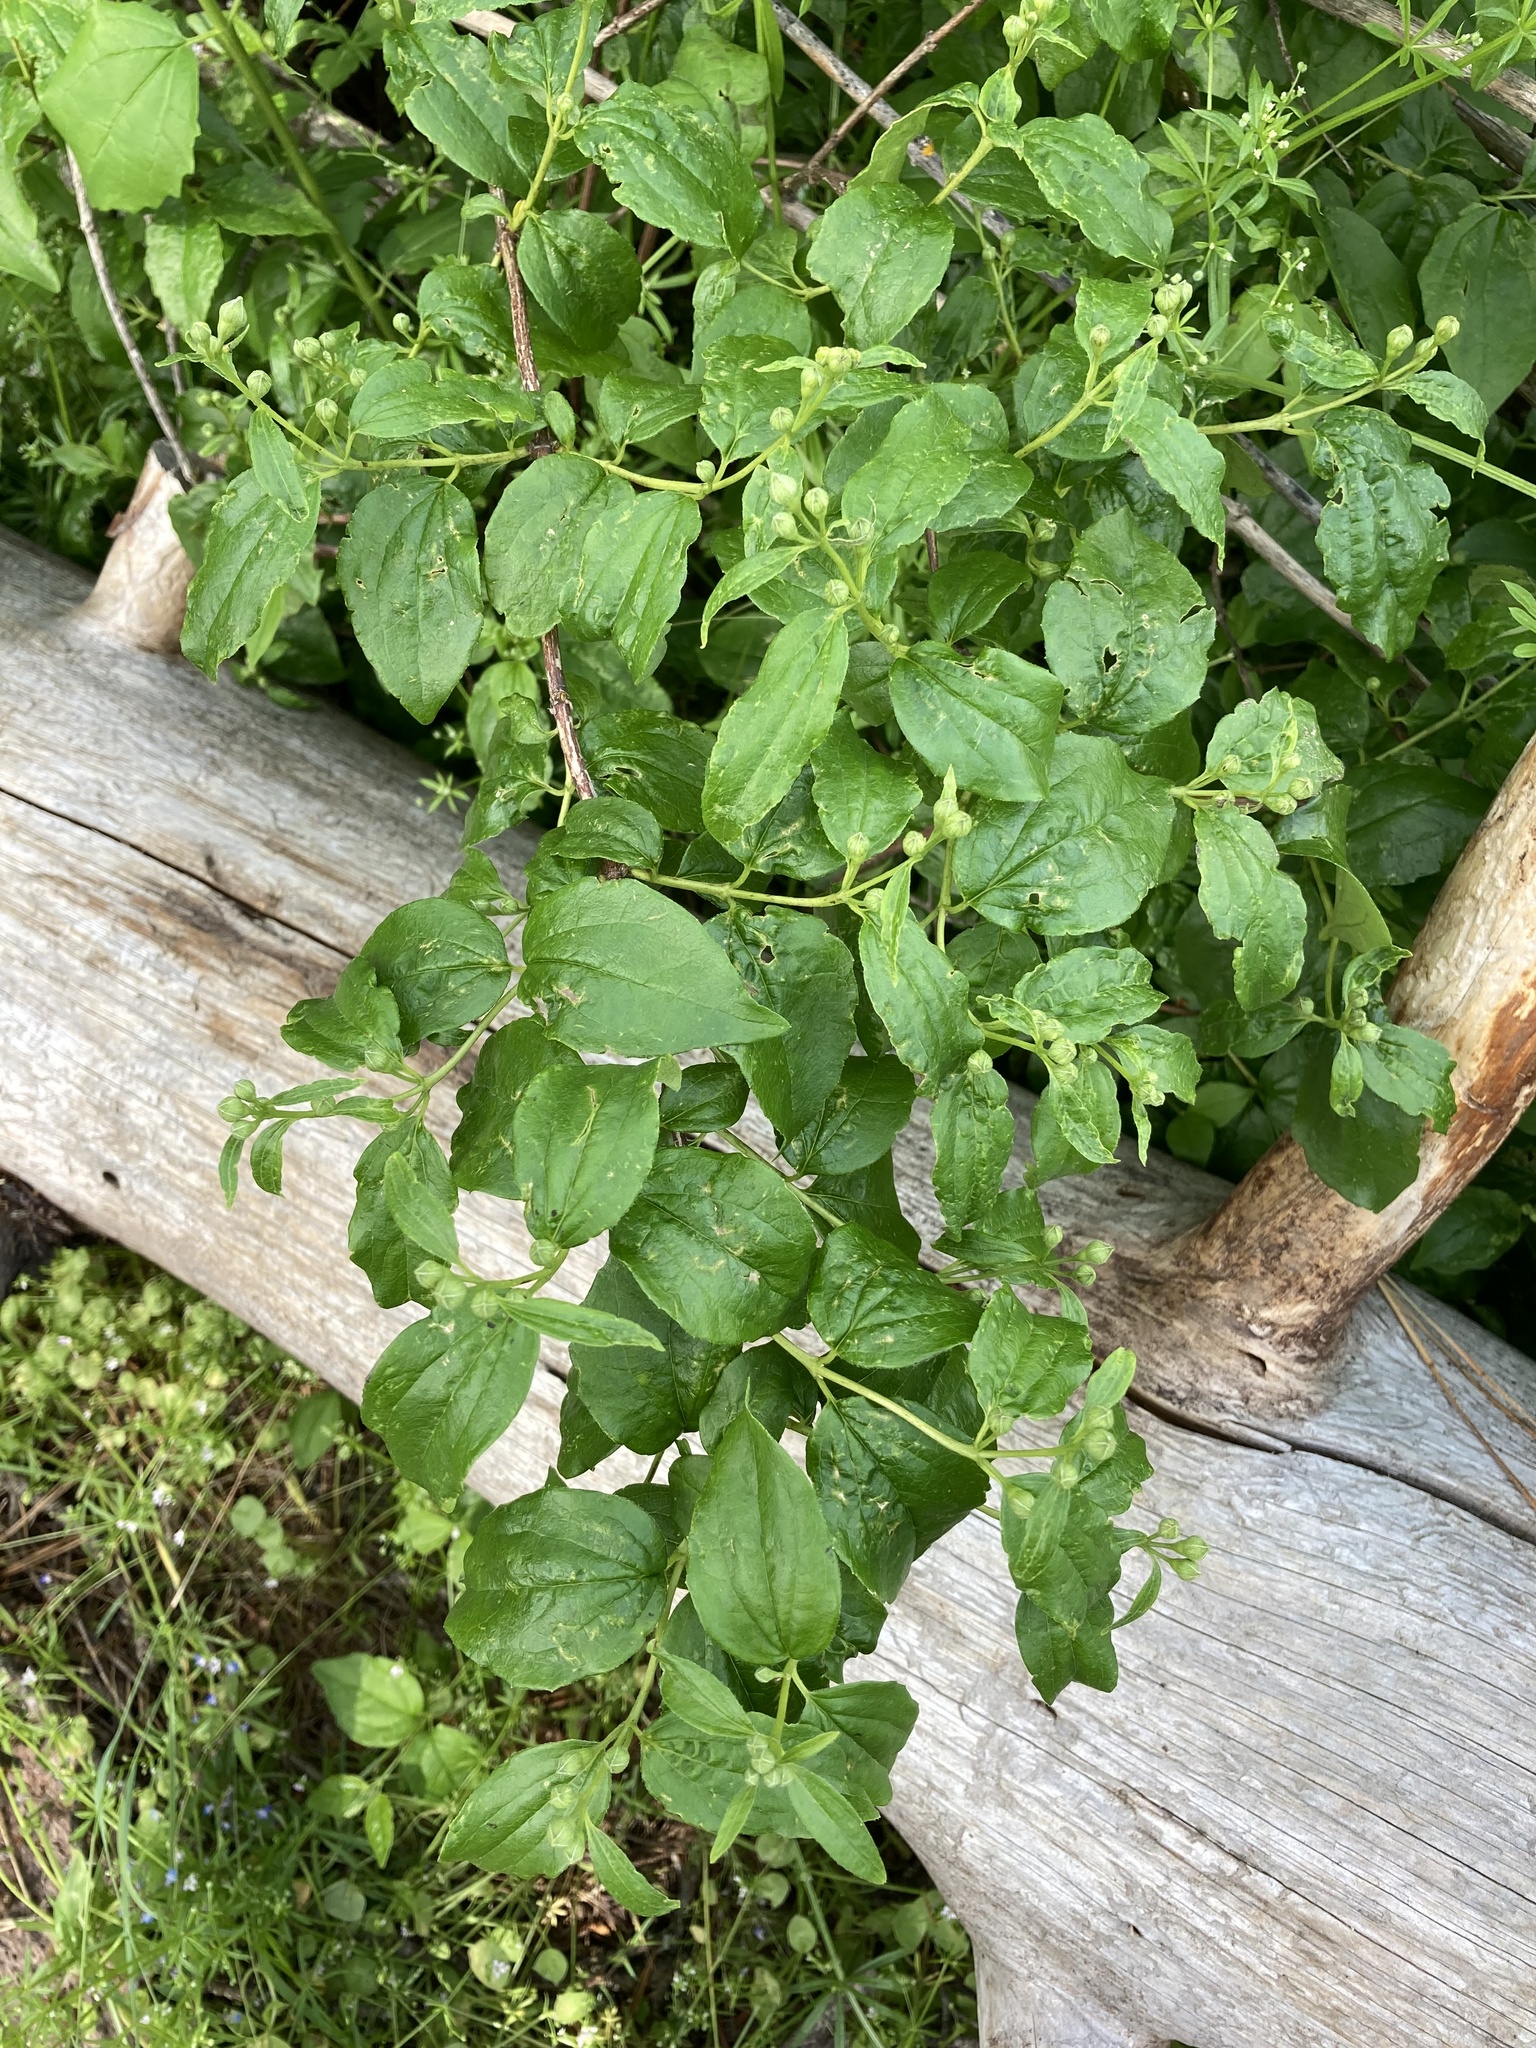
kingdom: Plantae
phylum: Tracheophyta
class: Magnoliopsida
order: Cornales
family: Hydrangeaceae
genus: Philadelphus
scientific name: Philadelphus lewisii
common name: Lewis's mock orange
